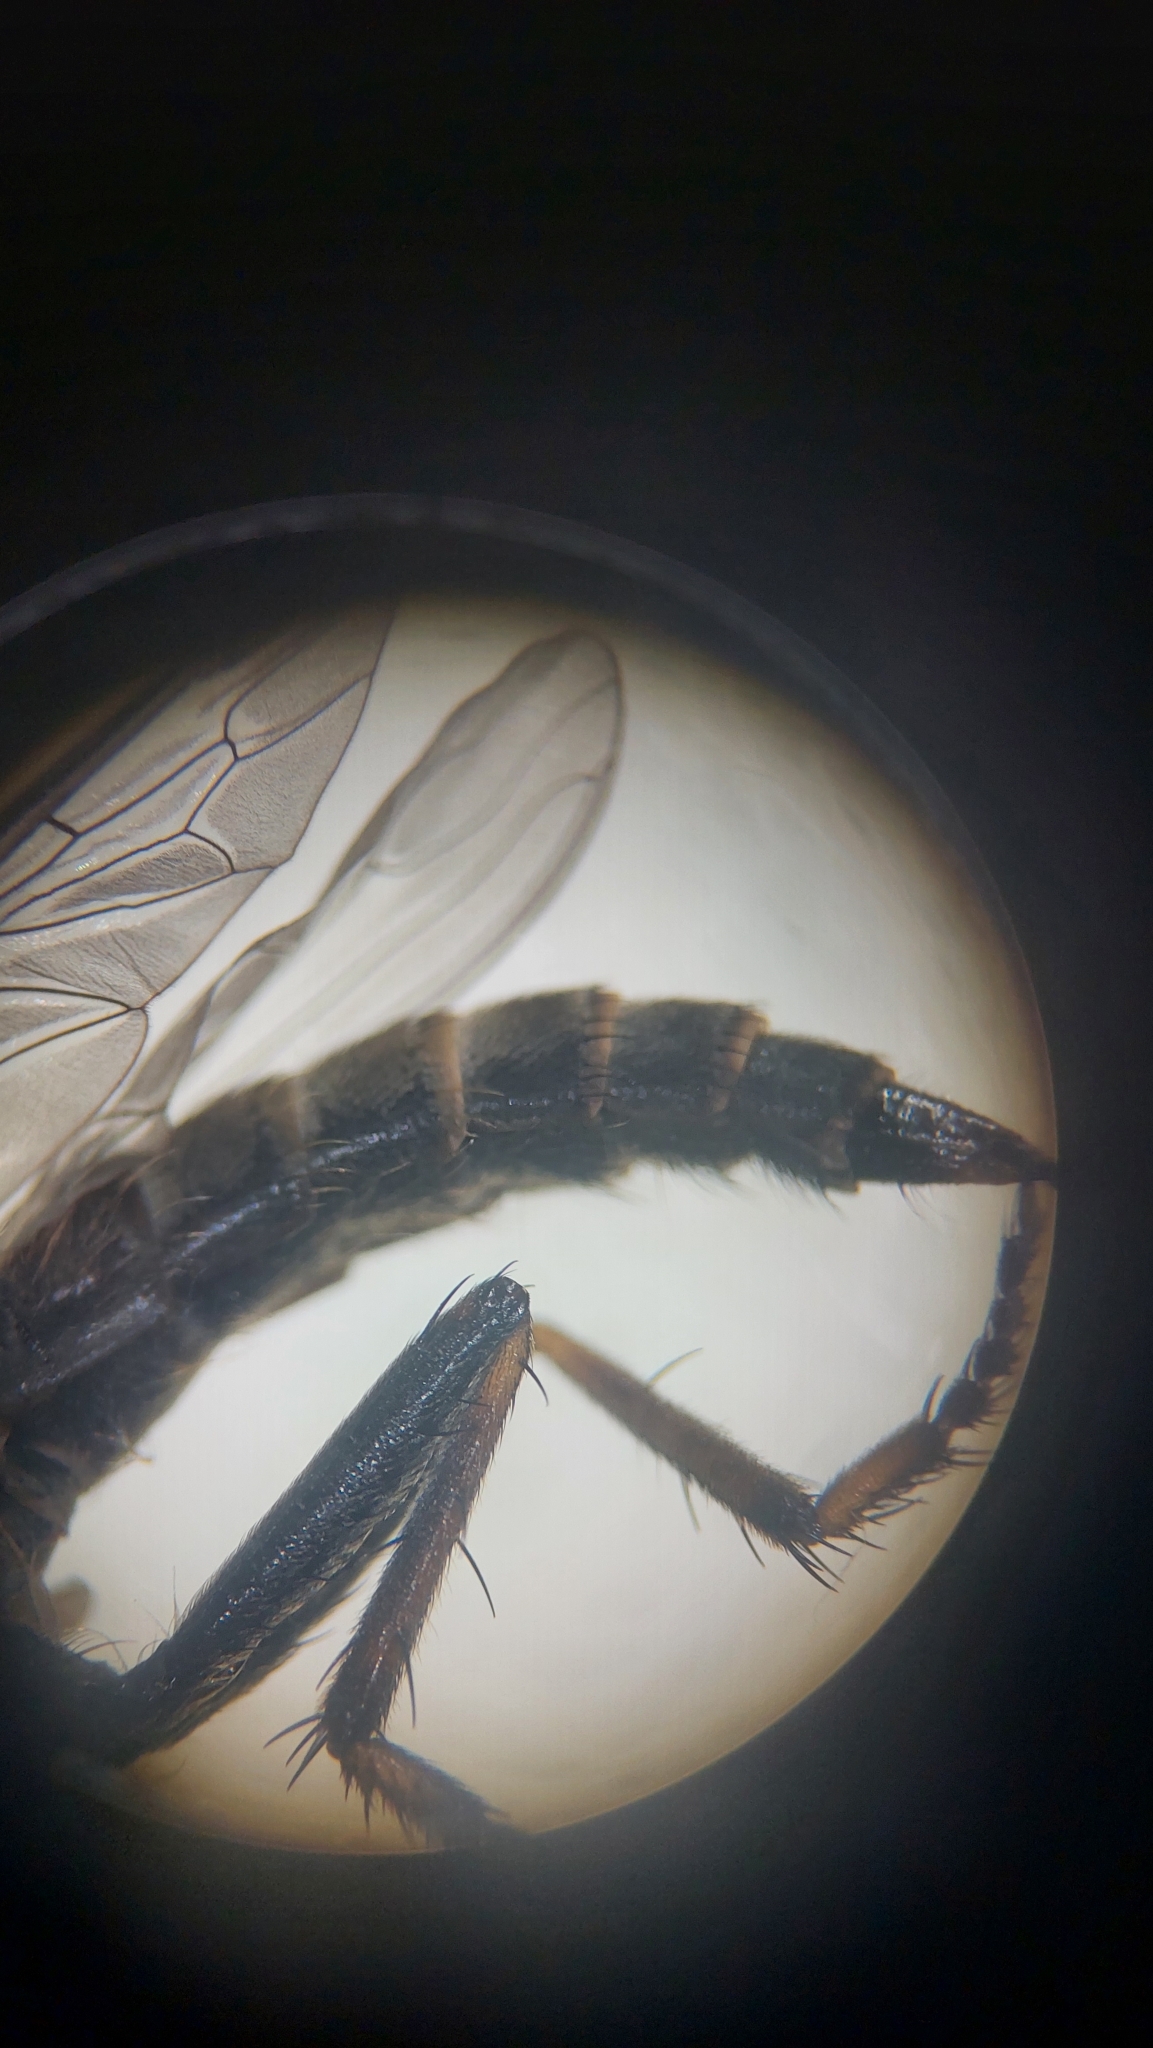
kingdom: Animalia
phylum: Arthropoda
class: Insecta
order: Diptera
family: Asilidae
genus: Machimus
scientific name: Machimus atricapillus
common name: Kite-tailed robberfly
